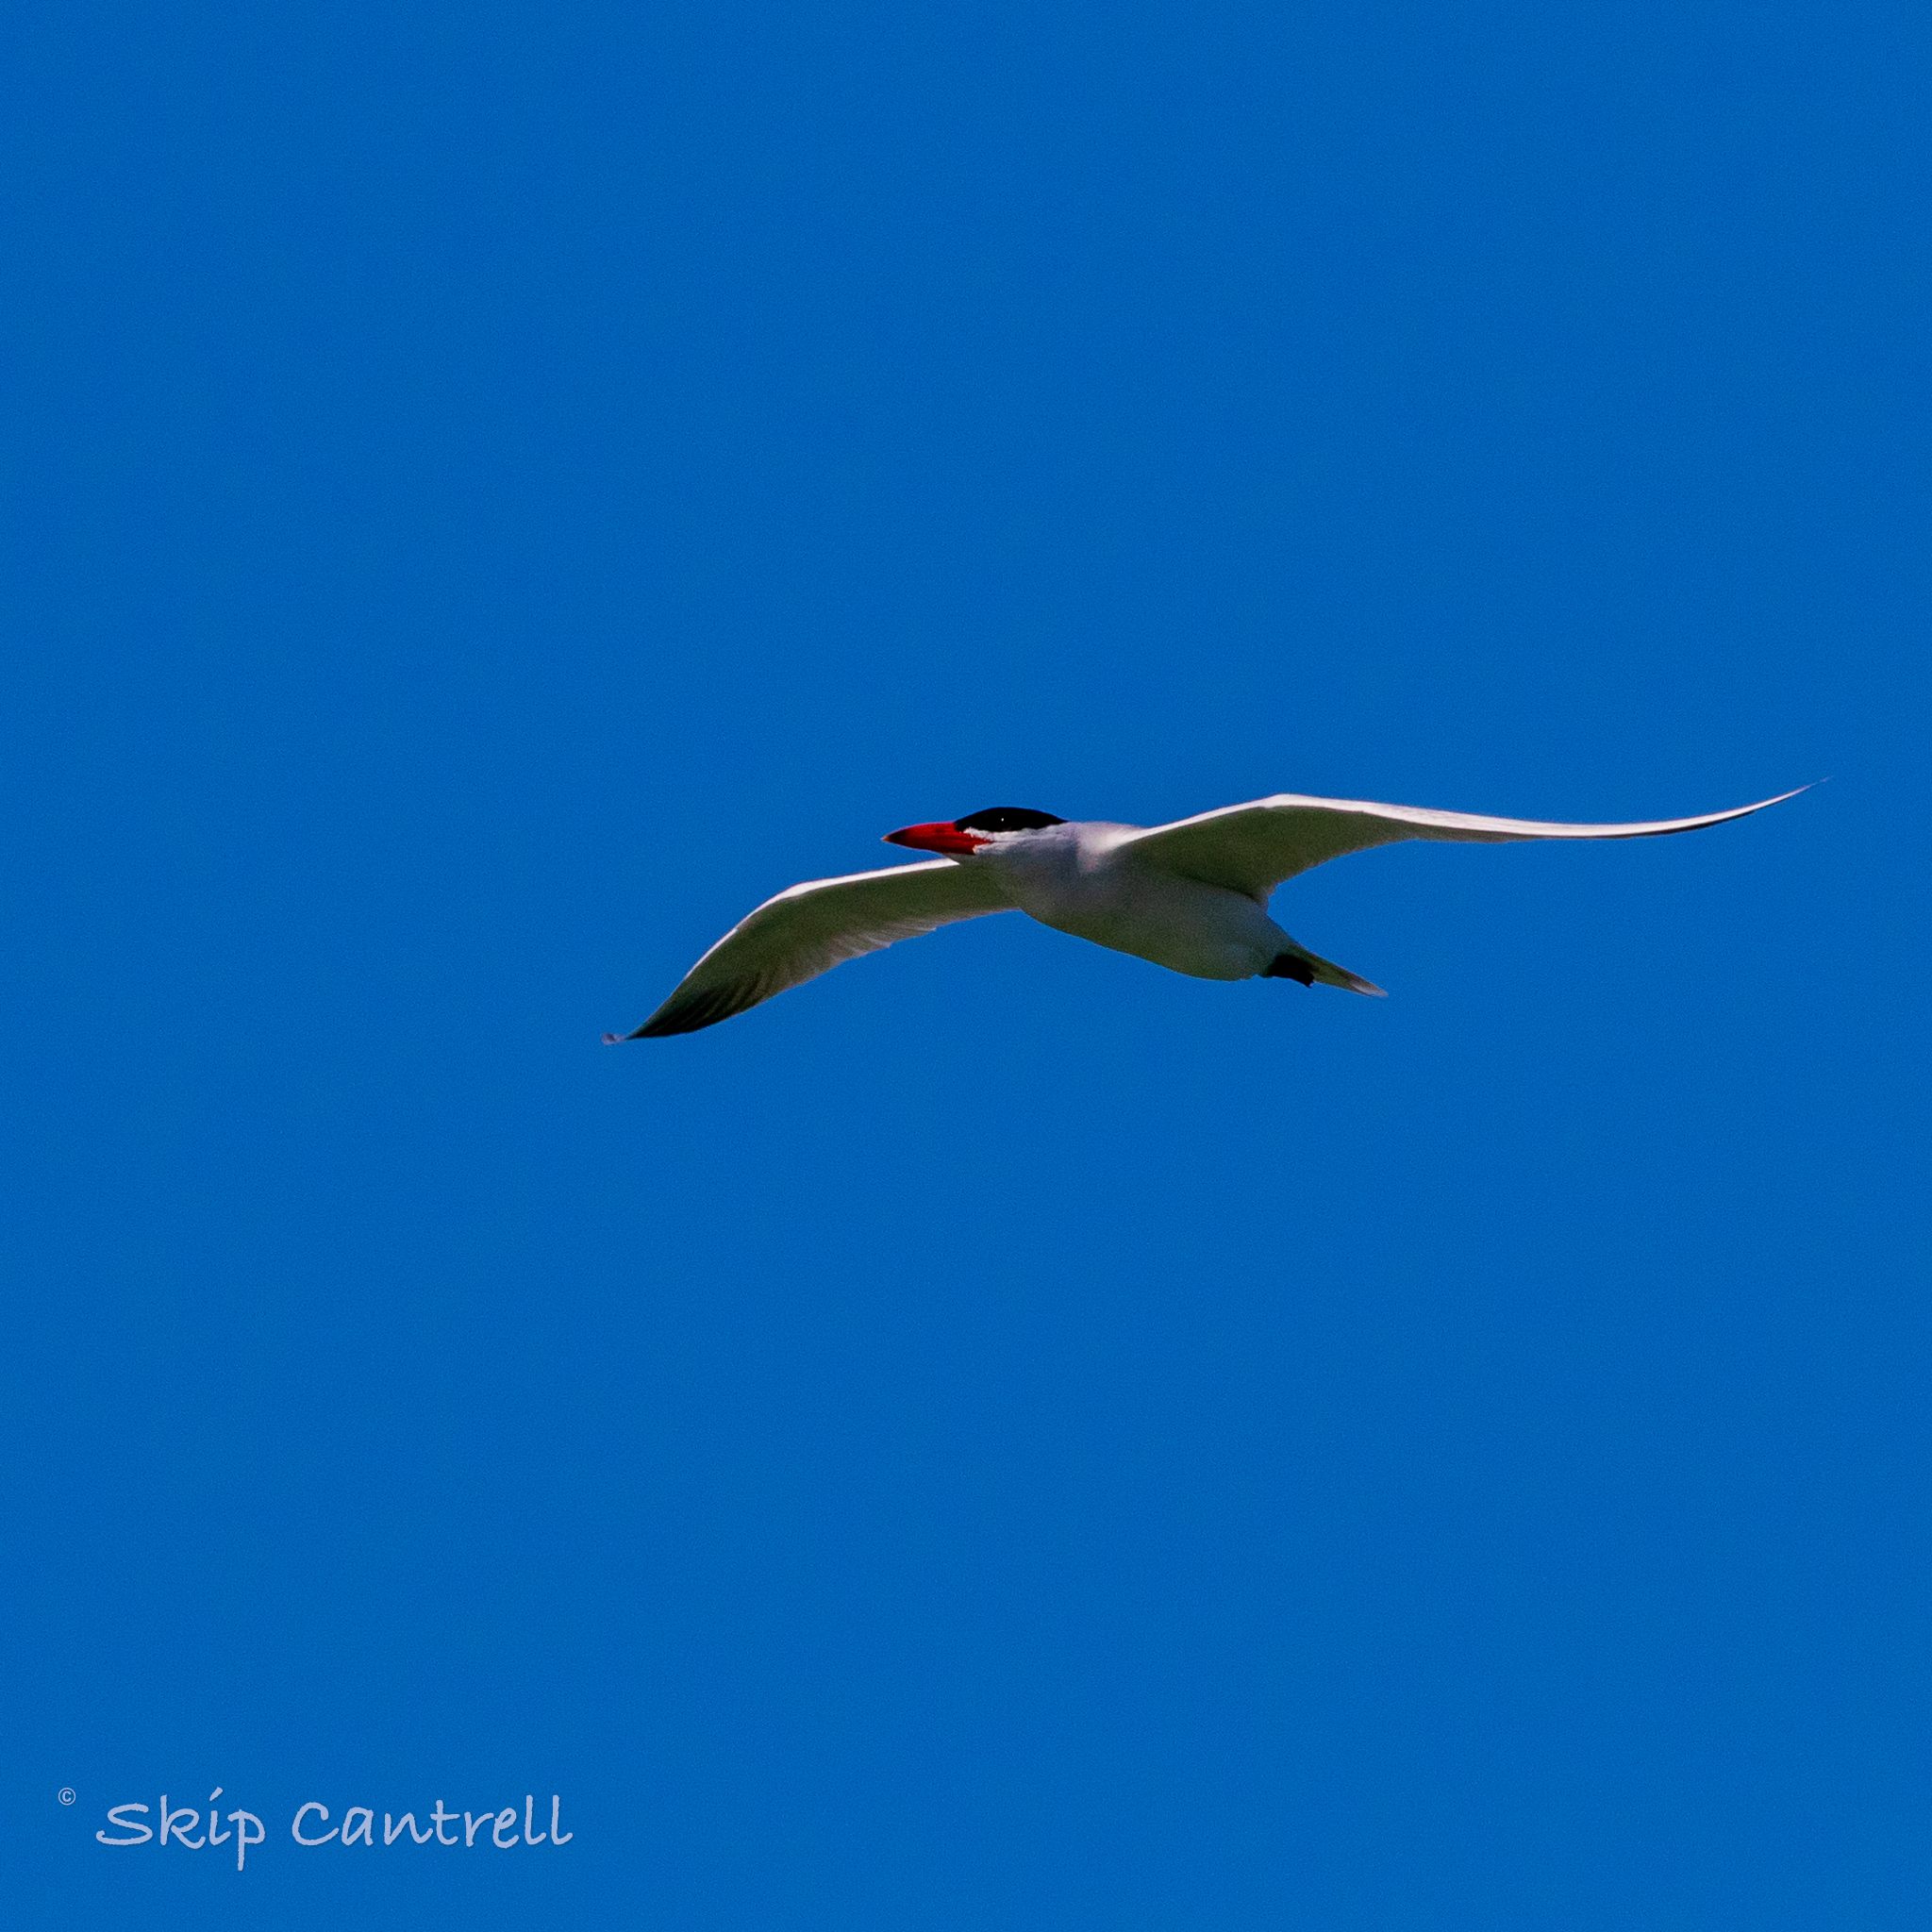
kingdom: Animalia
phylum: Chordata
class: Aves
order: Charadriiformes
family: Laridae
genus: Hydroprogne
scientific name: Hydroprogne caspia
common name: Caspian tern
